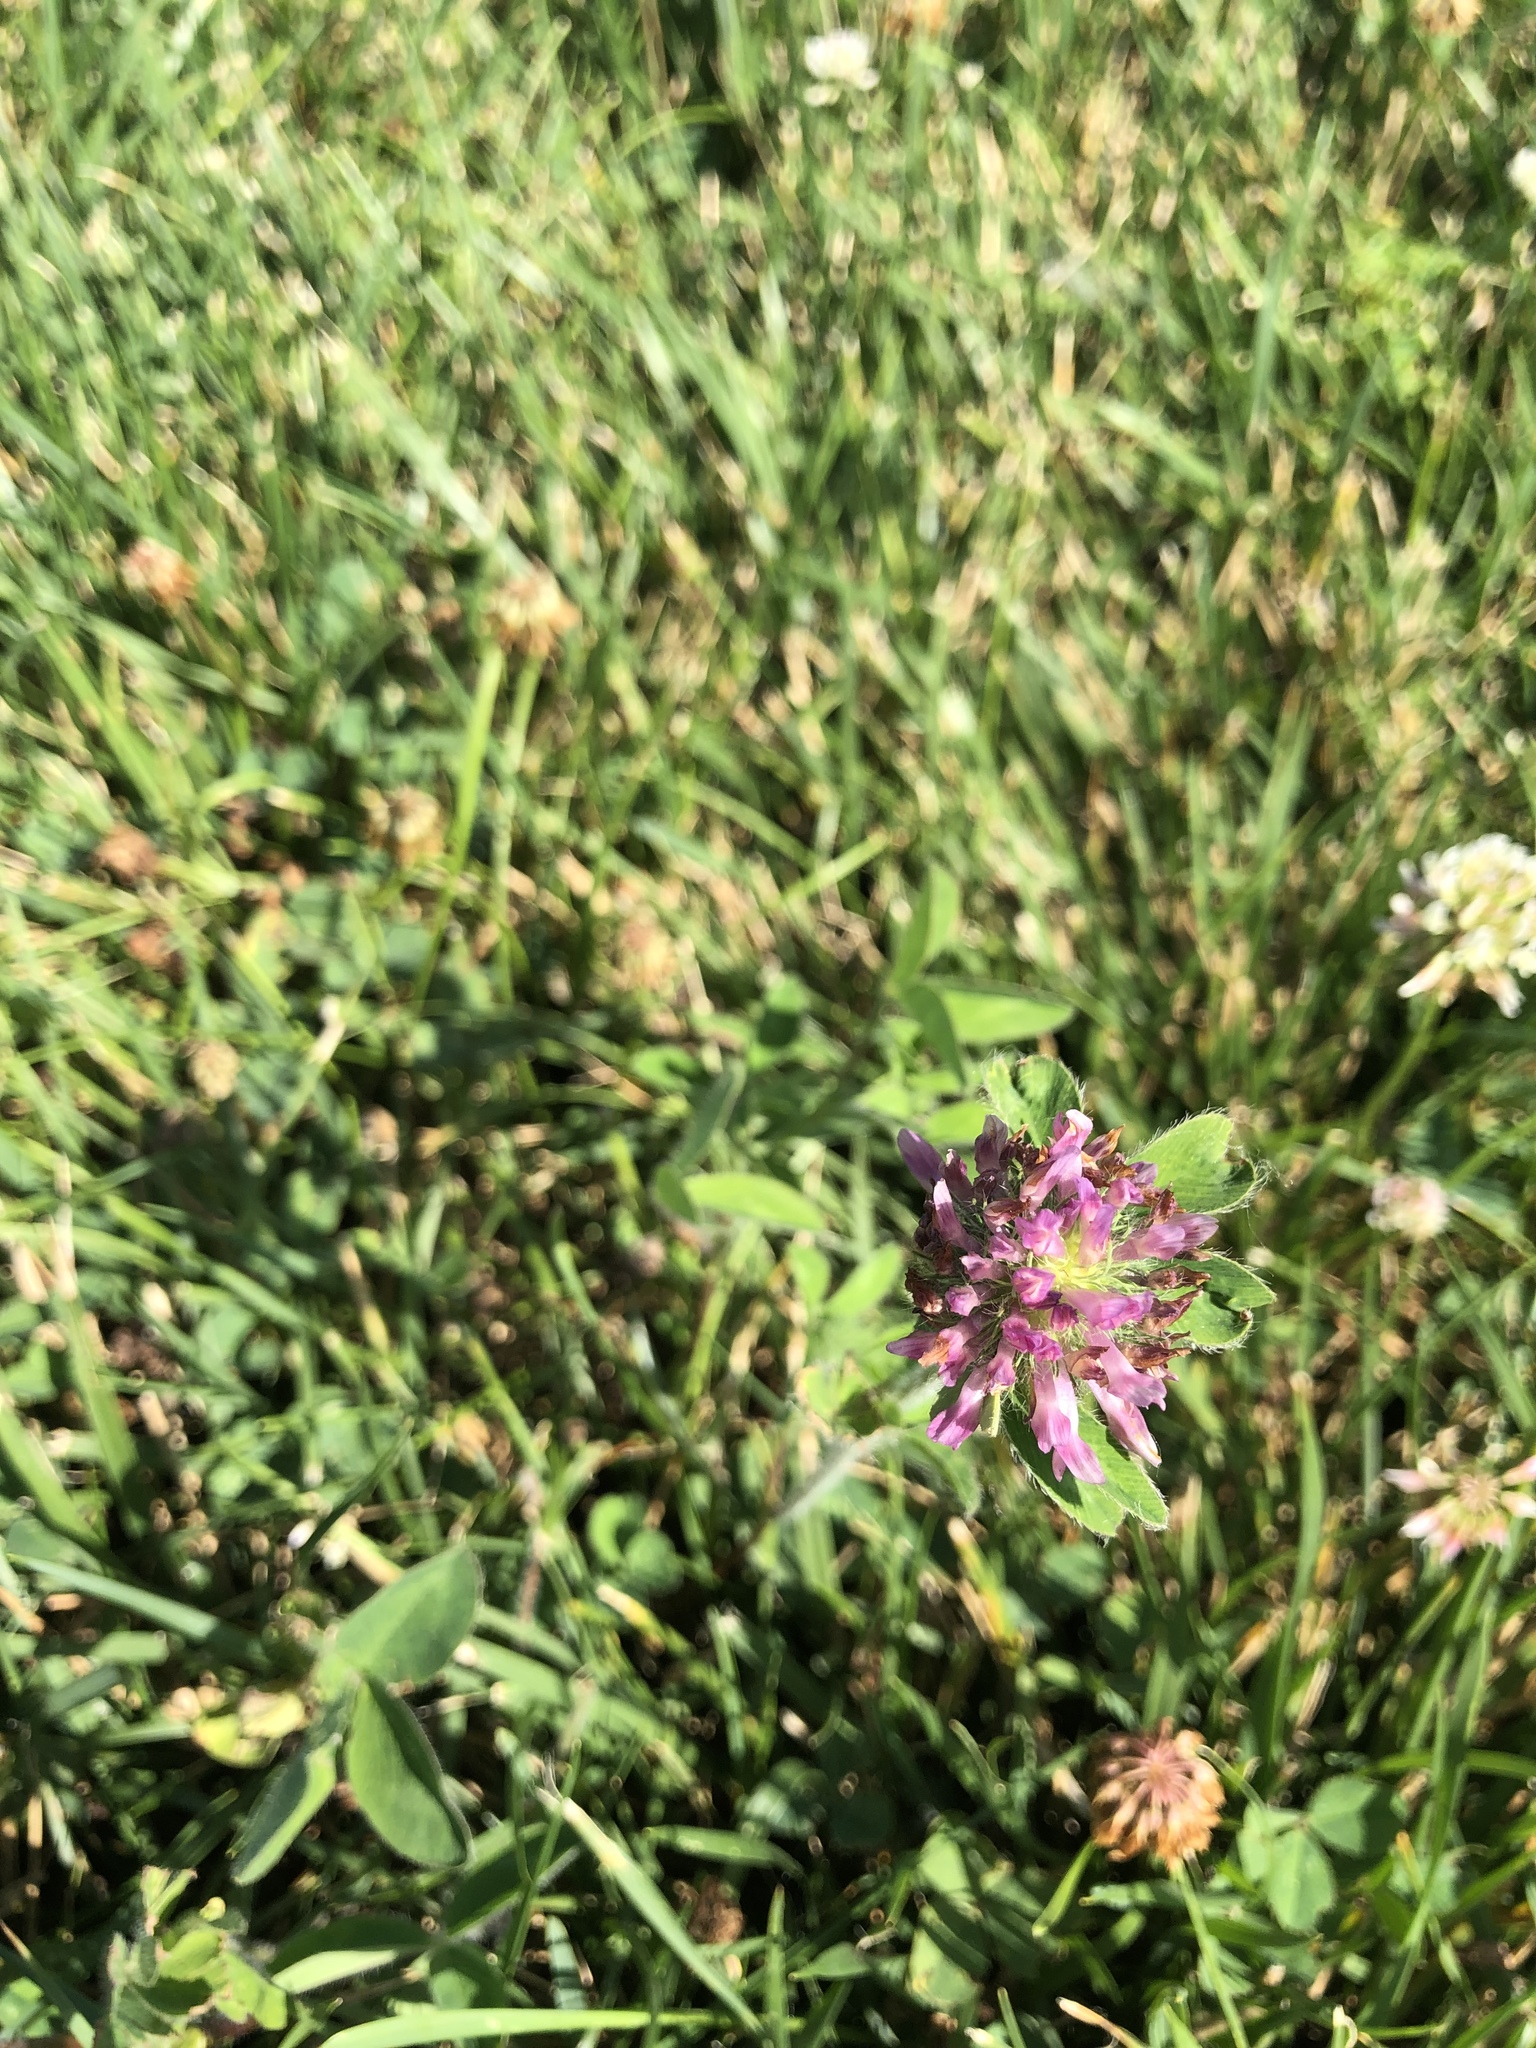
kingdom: Plantae
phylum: Tracheophyta
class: Magnoliopsida
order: Fabales
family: Fabaceae
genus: Trifolium
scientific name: Trifolium pratense
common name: Red clover
